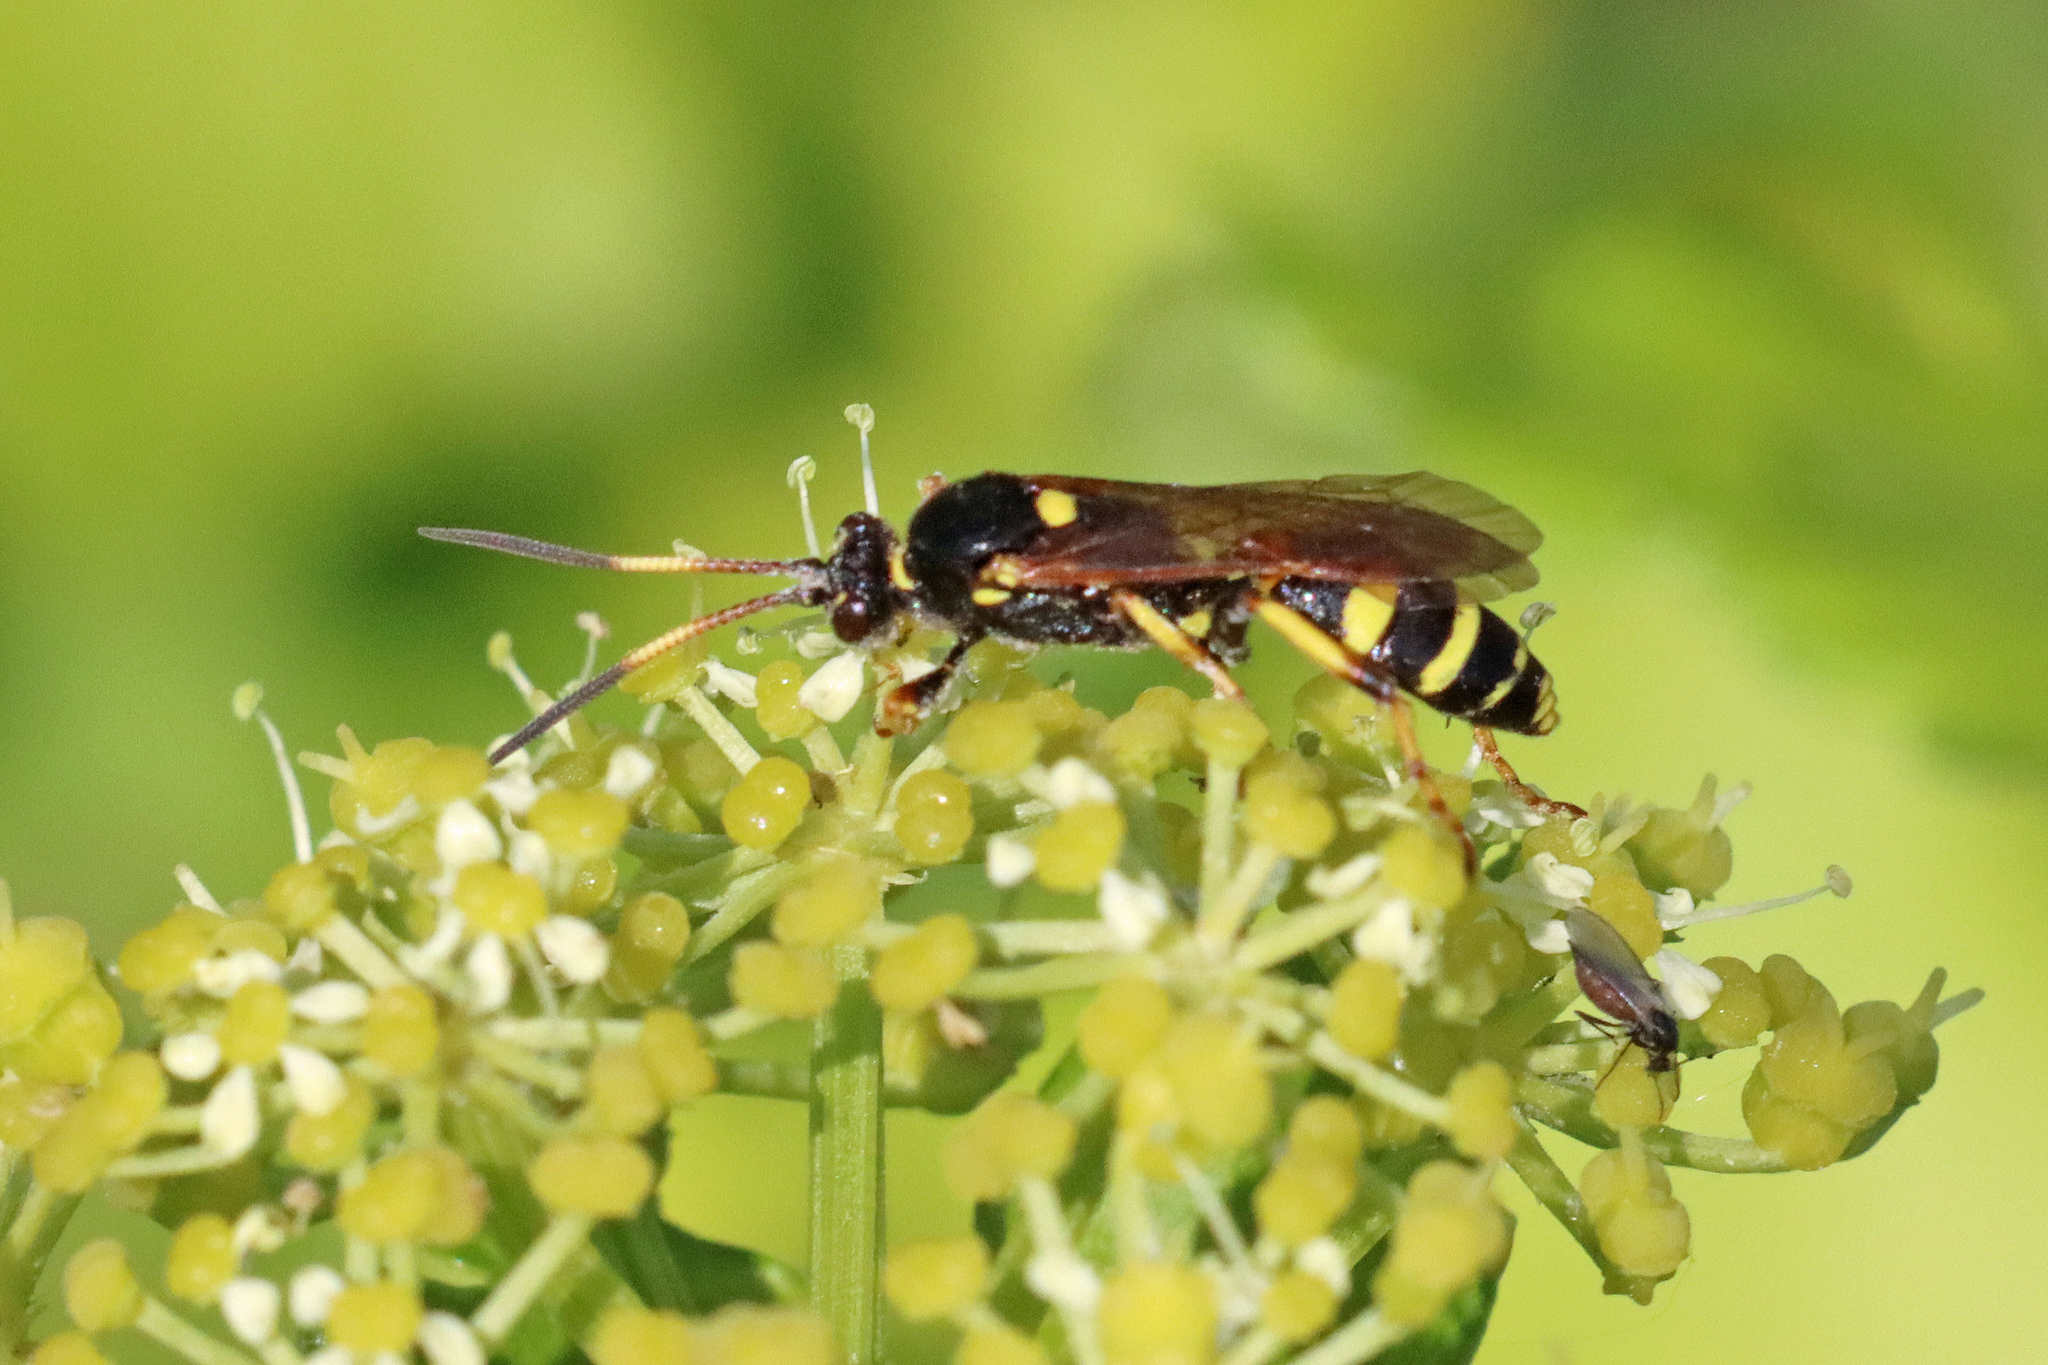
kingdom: Animalia
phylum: Arthropoda
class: Insecta
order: Hymenoptera
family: Ichneumonidae
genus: Ichneumon
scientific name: Ichneumon xanthorius
